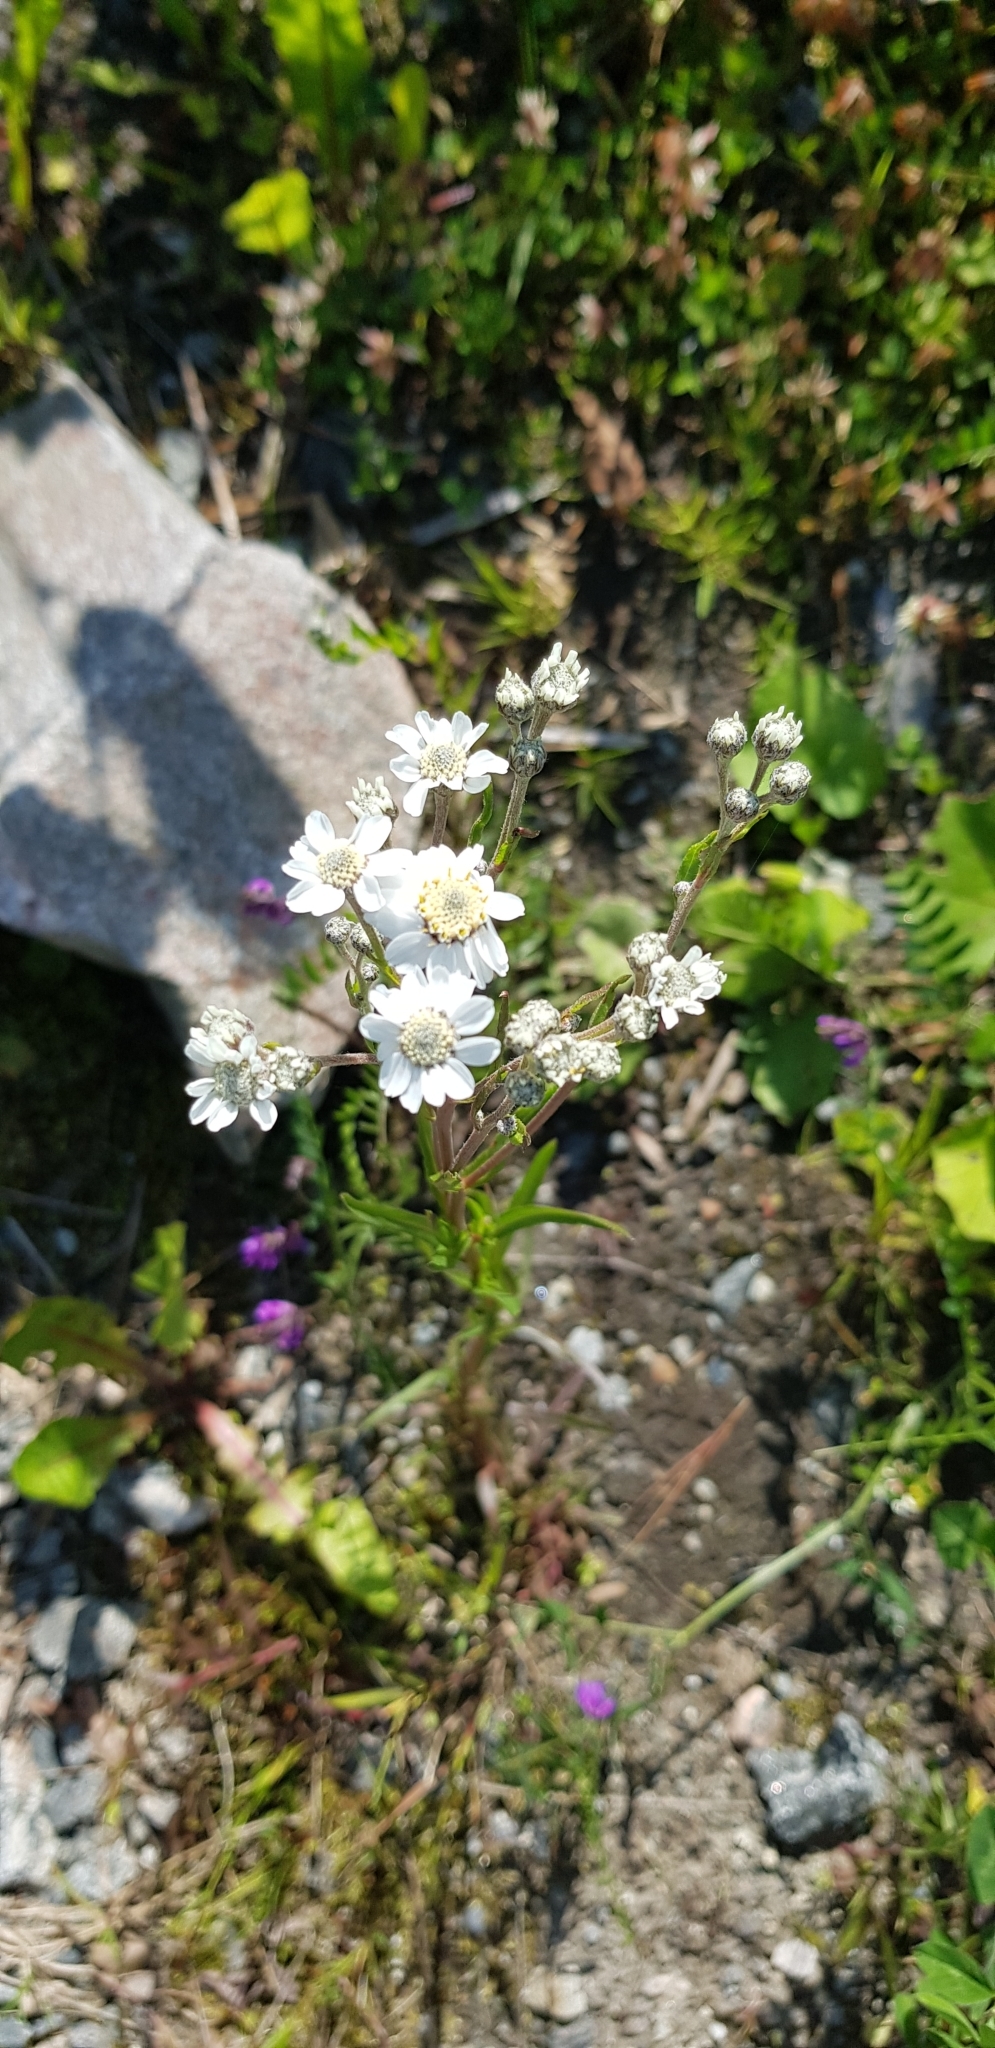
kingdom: Plantae
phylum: Tracheophyta
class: Magnoliopsida
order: Asterales
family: Asteraceae
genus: Achillea
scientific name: Achillea ptarmica
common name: Sneezeweed
